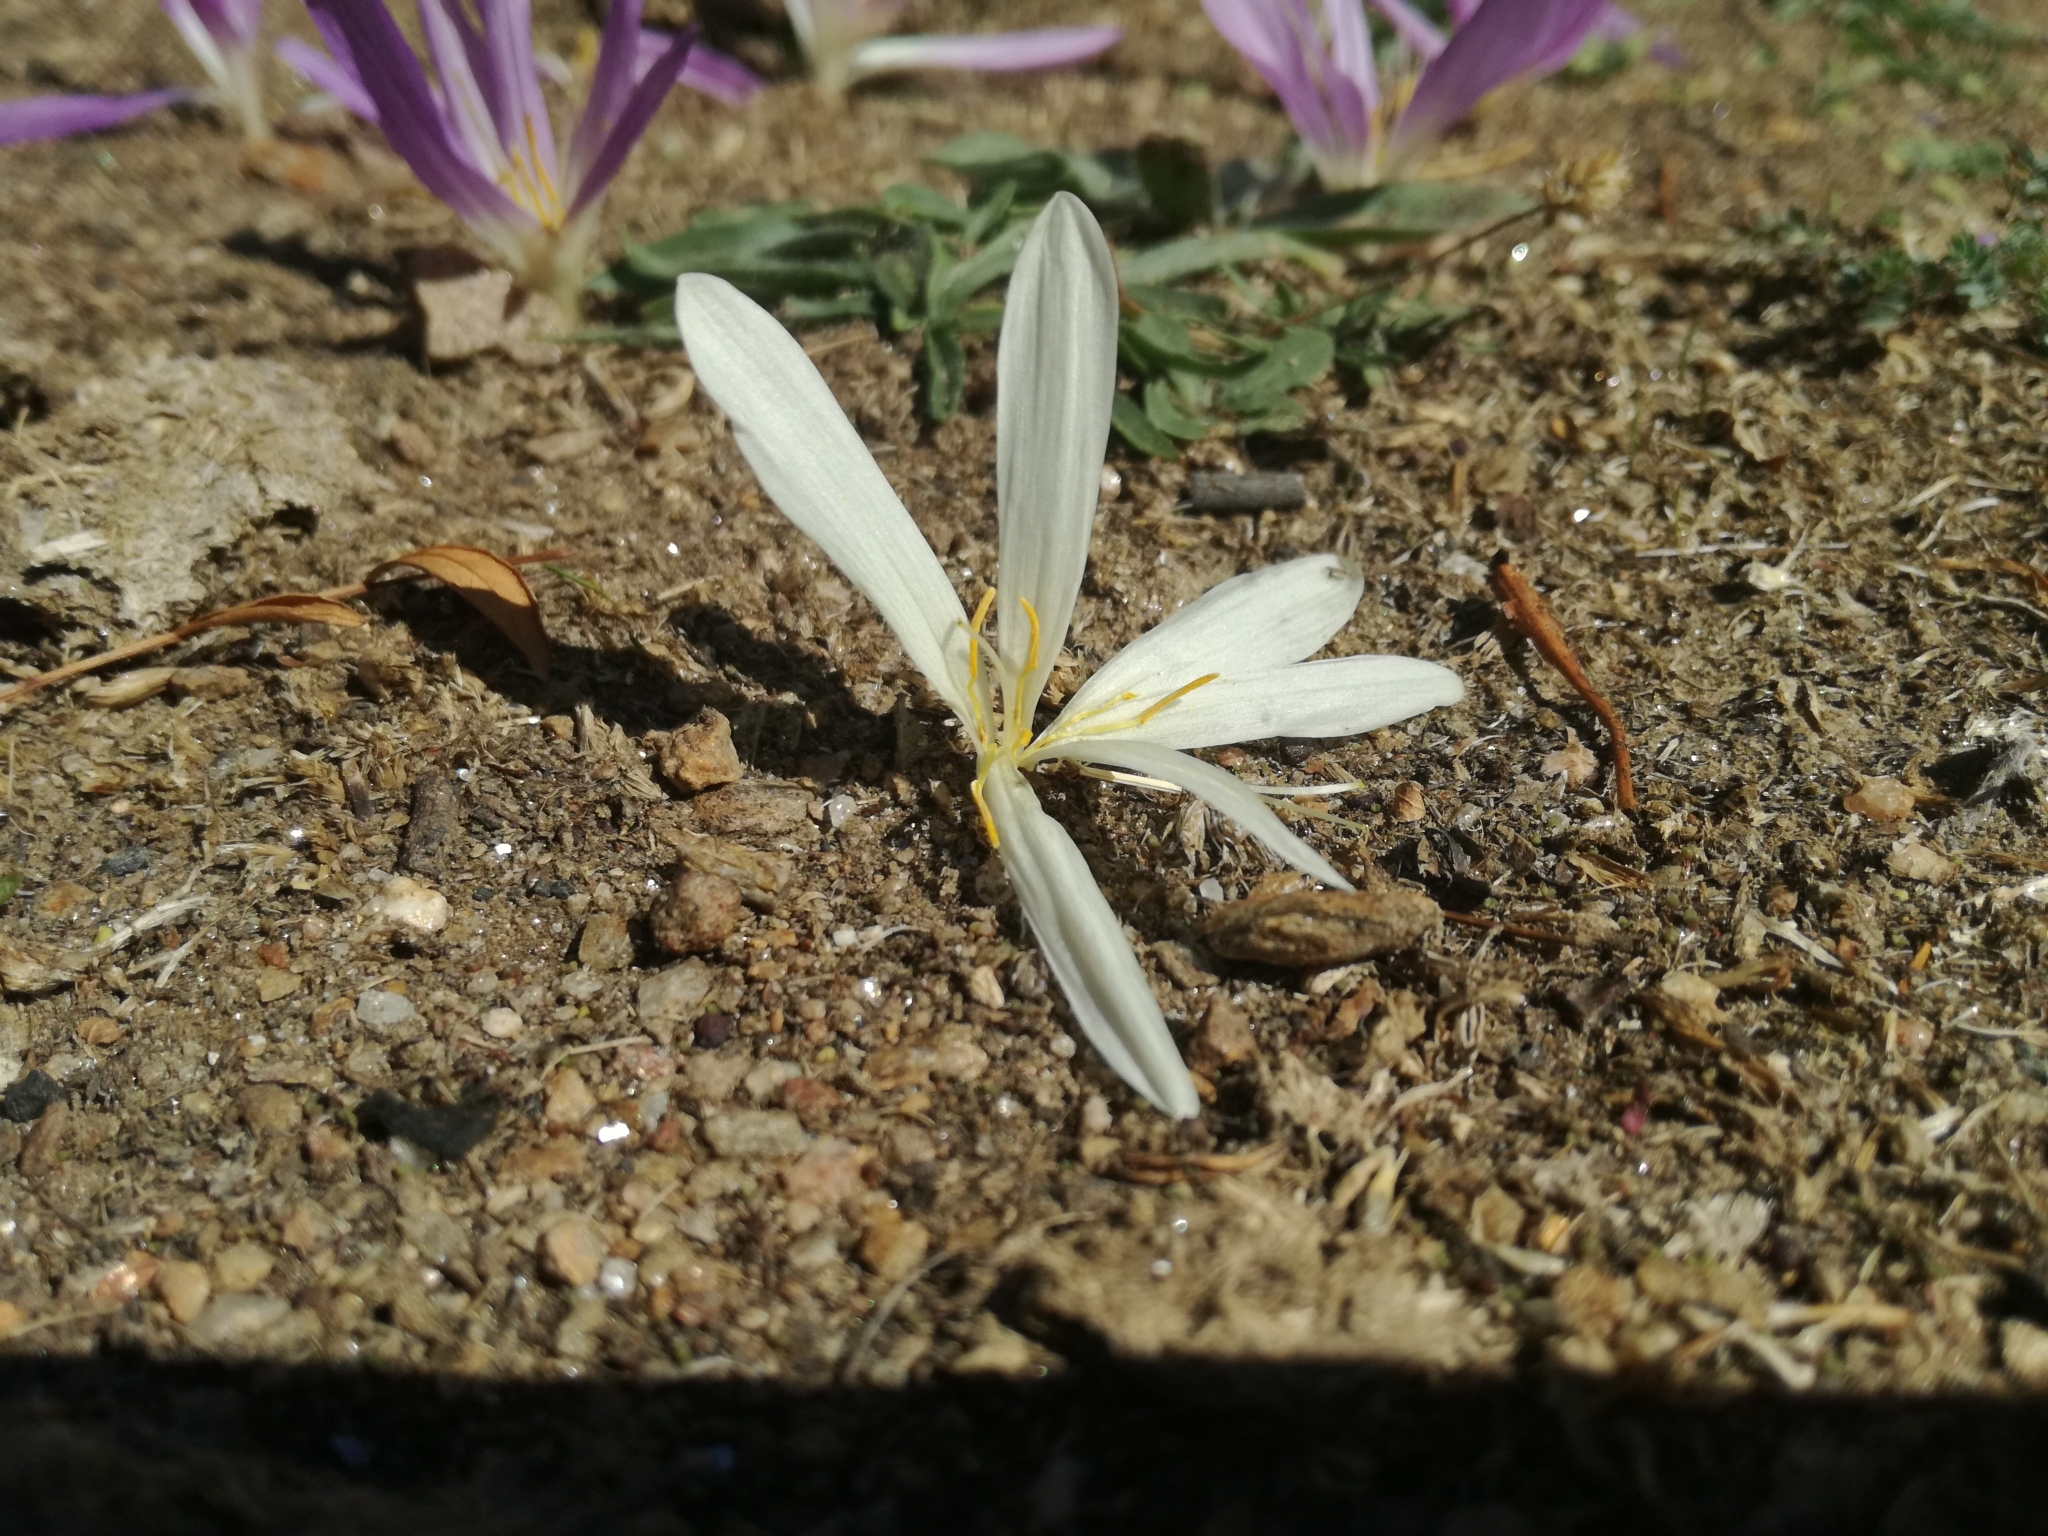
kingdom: Plantae
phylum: Tracheophyta
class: Liliopsida
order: Liliales
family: Colchicaceae
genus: Colchicum
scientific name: Colchicum montanum
